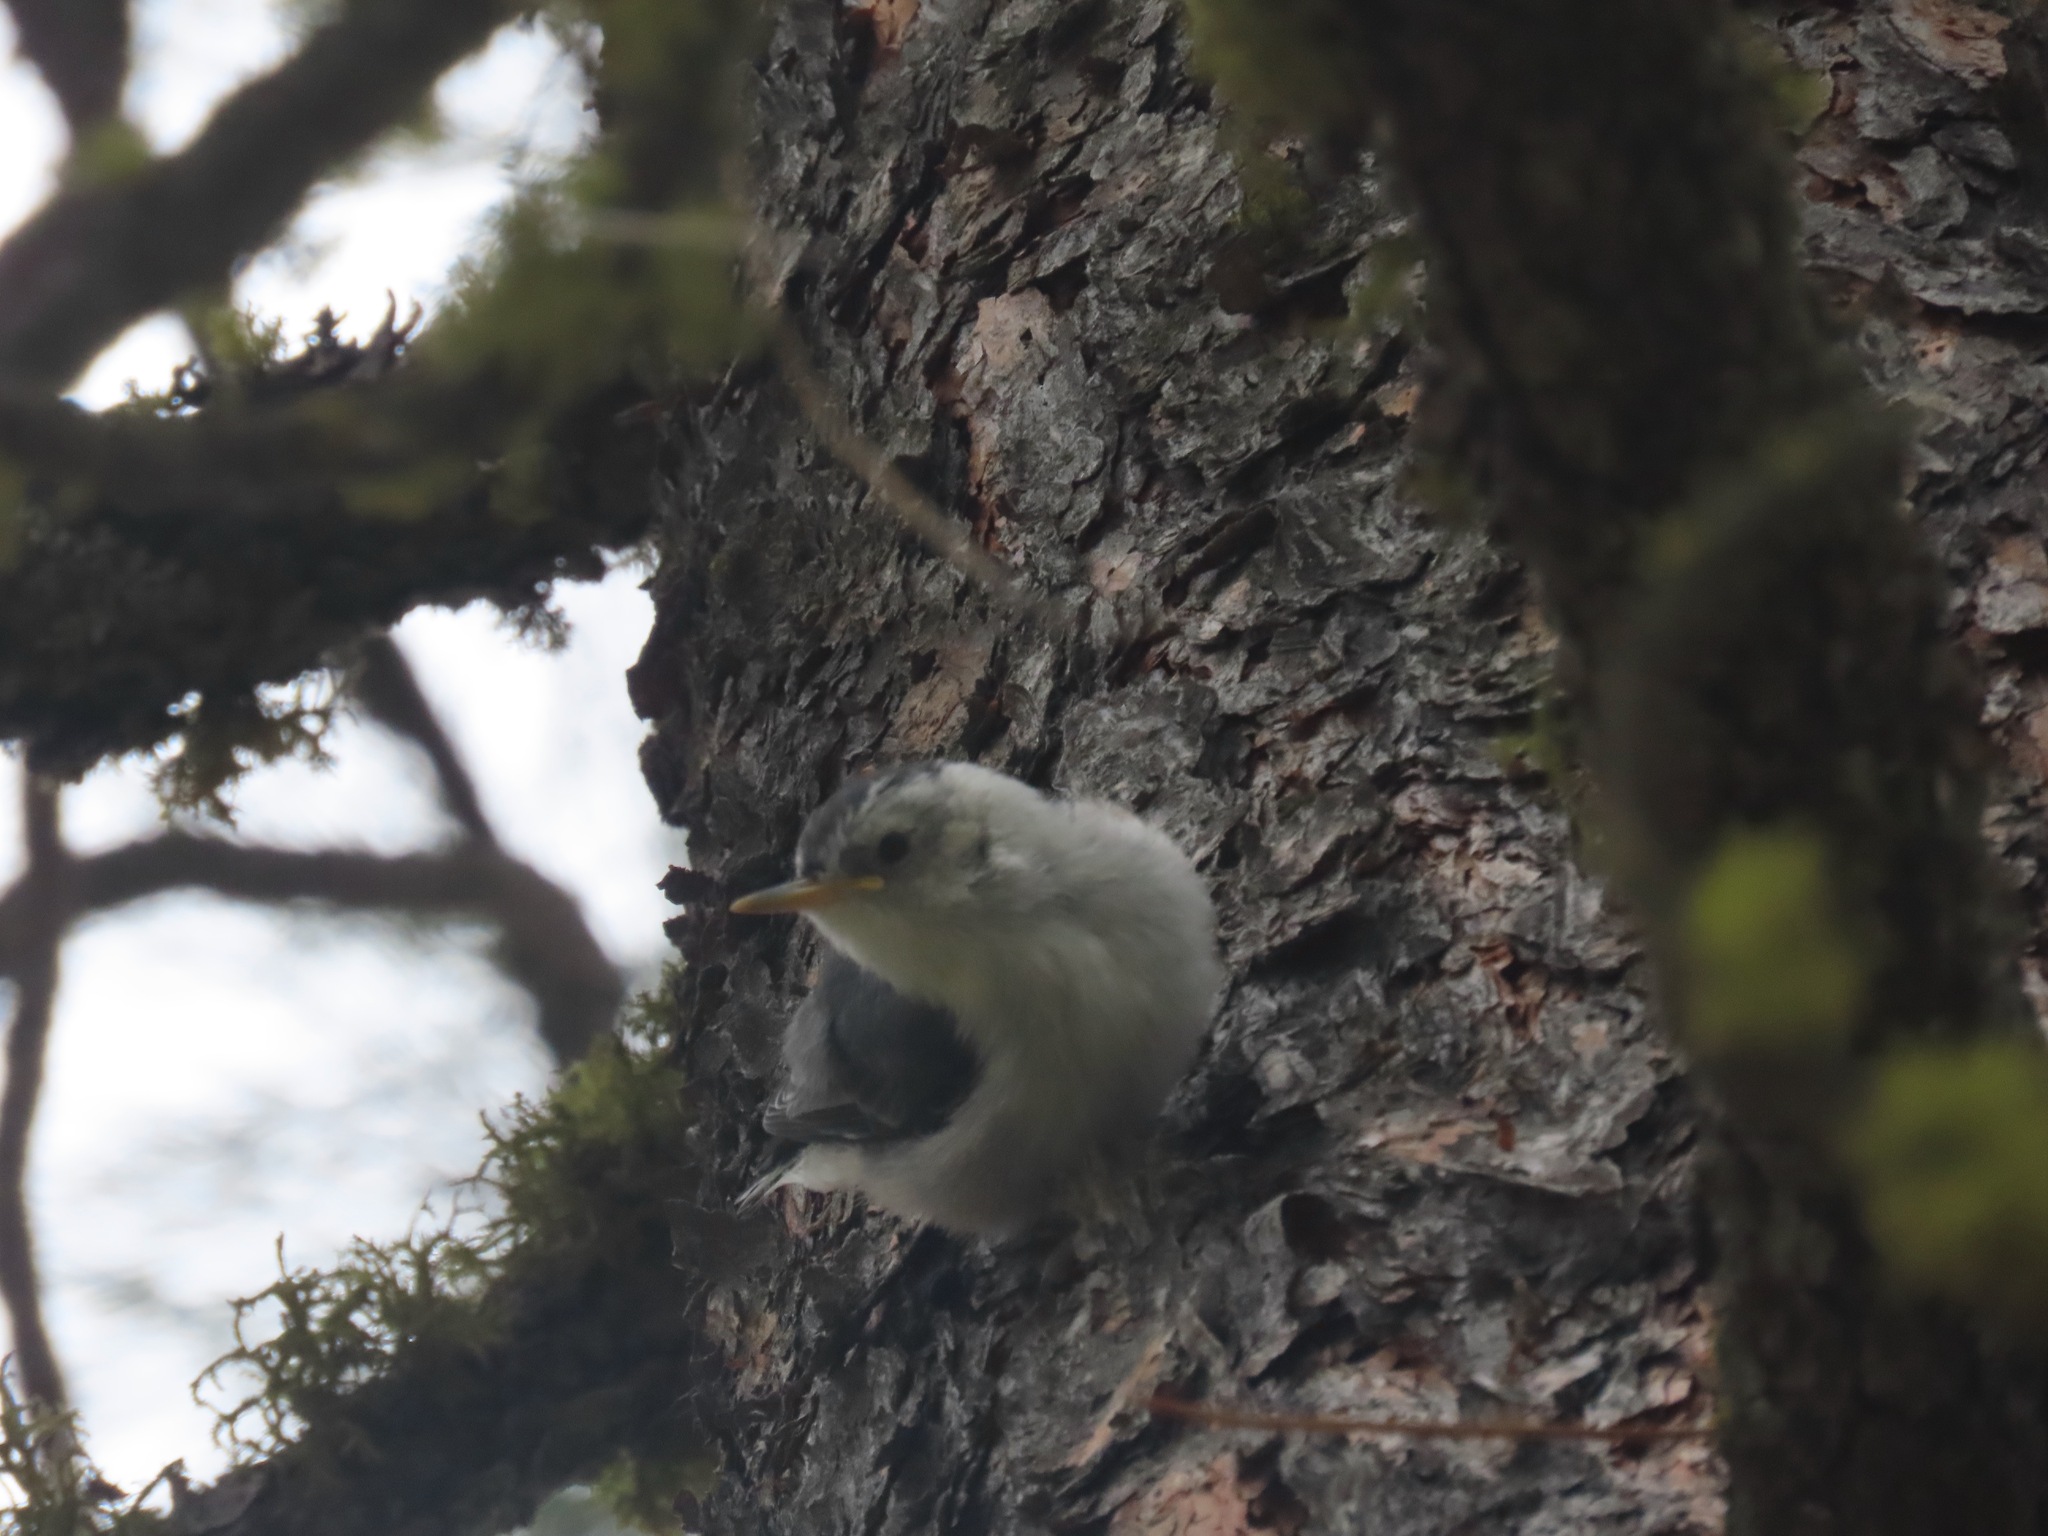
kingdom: Animalia
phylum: Chordata
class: Aves
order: Passeriformes
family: Sittidae
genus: Sitta
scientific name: Sitta carolinensis
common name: White-breasted nuthatch
